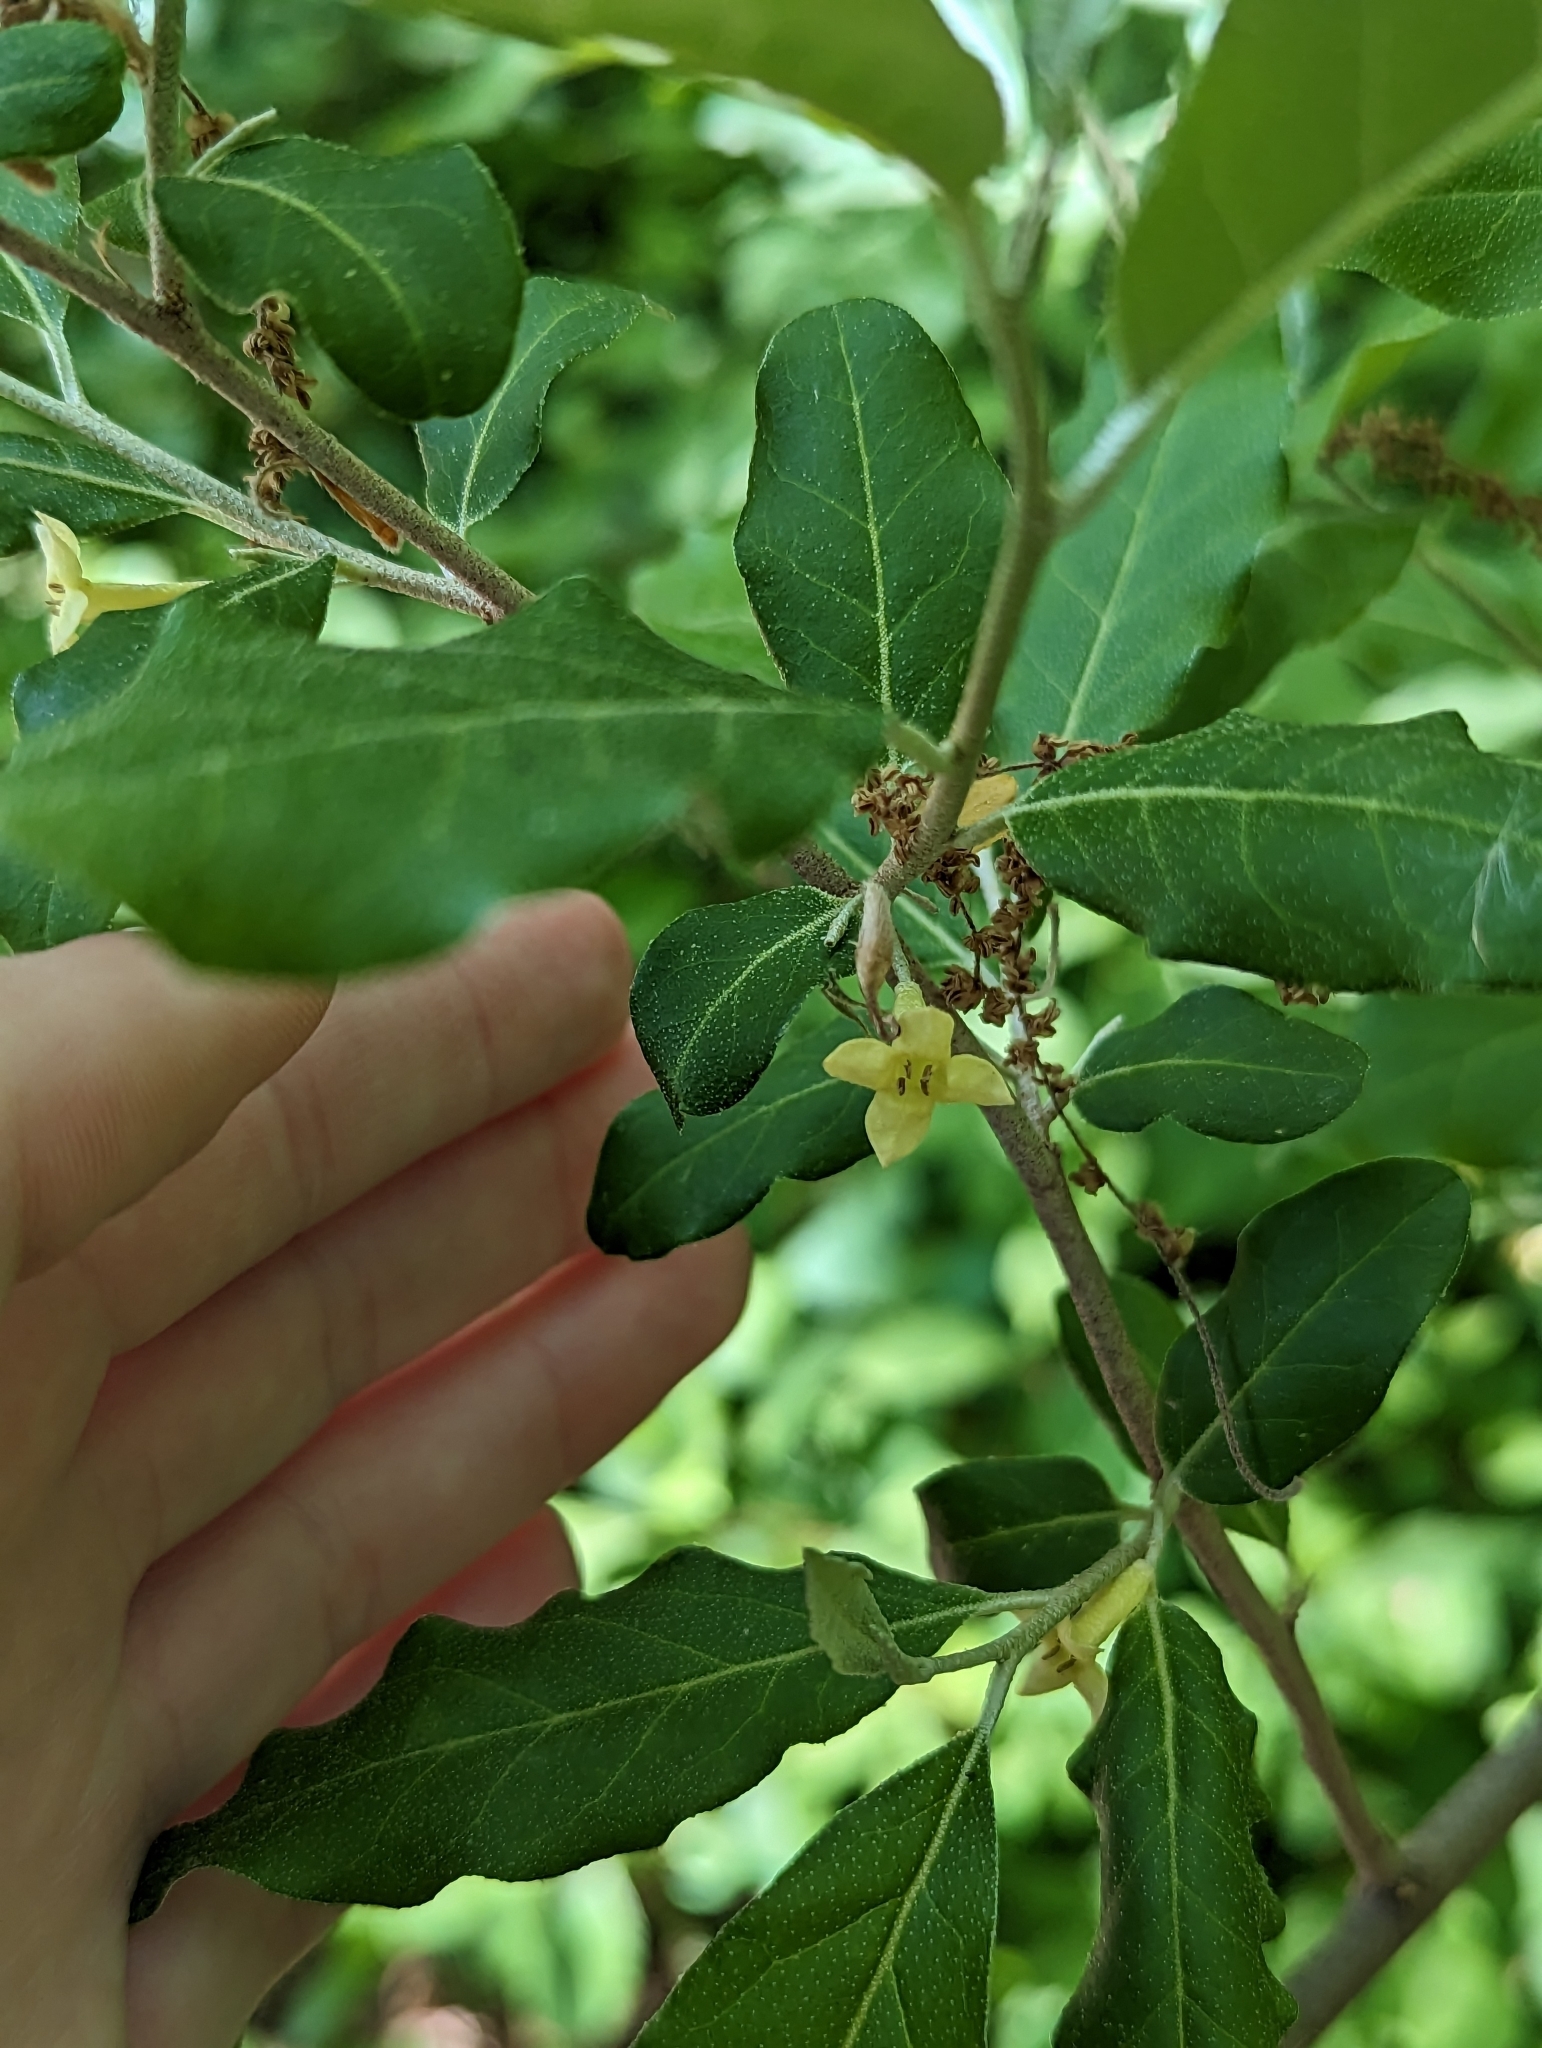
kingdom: Plantae
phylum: Tracheophyta
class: Magnoliopsida
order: Rosales
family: Elaeagnaceae
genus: Elaeagnus
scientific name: Elaeagnus umbellata
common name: Autumn olive
